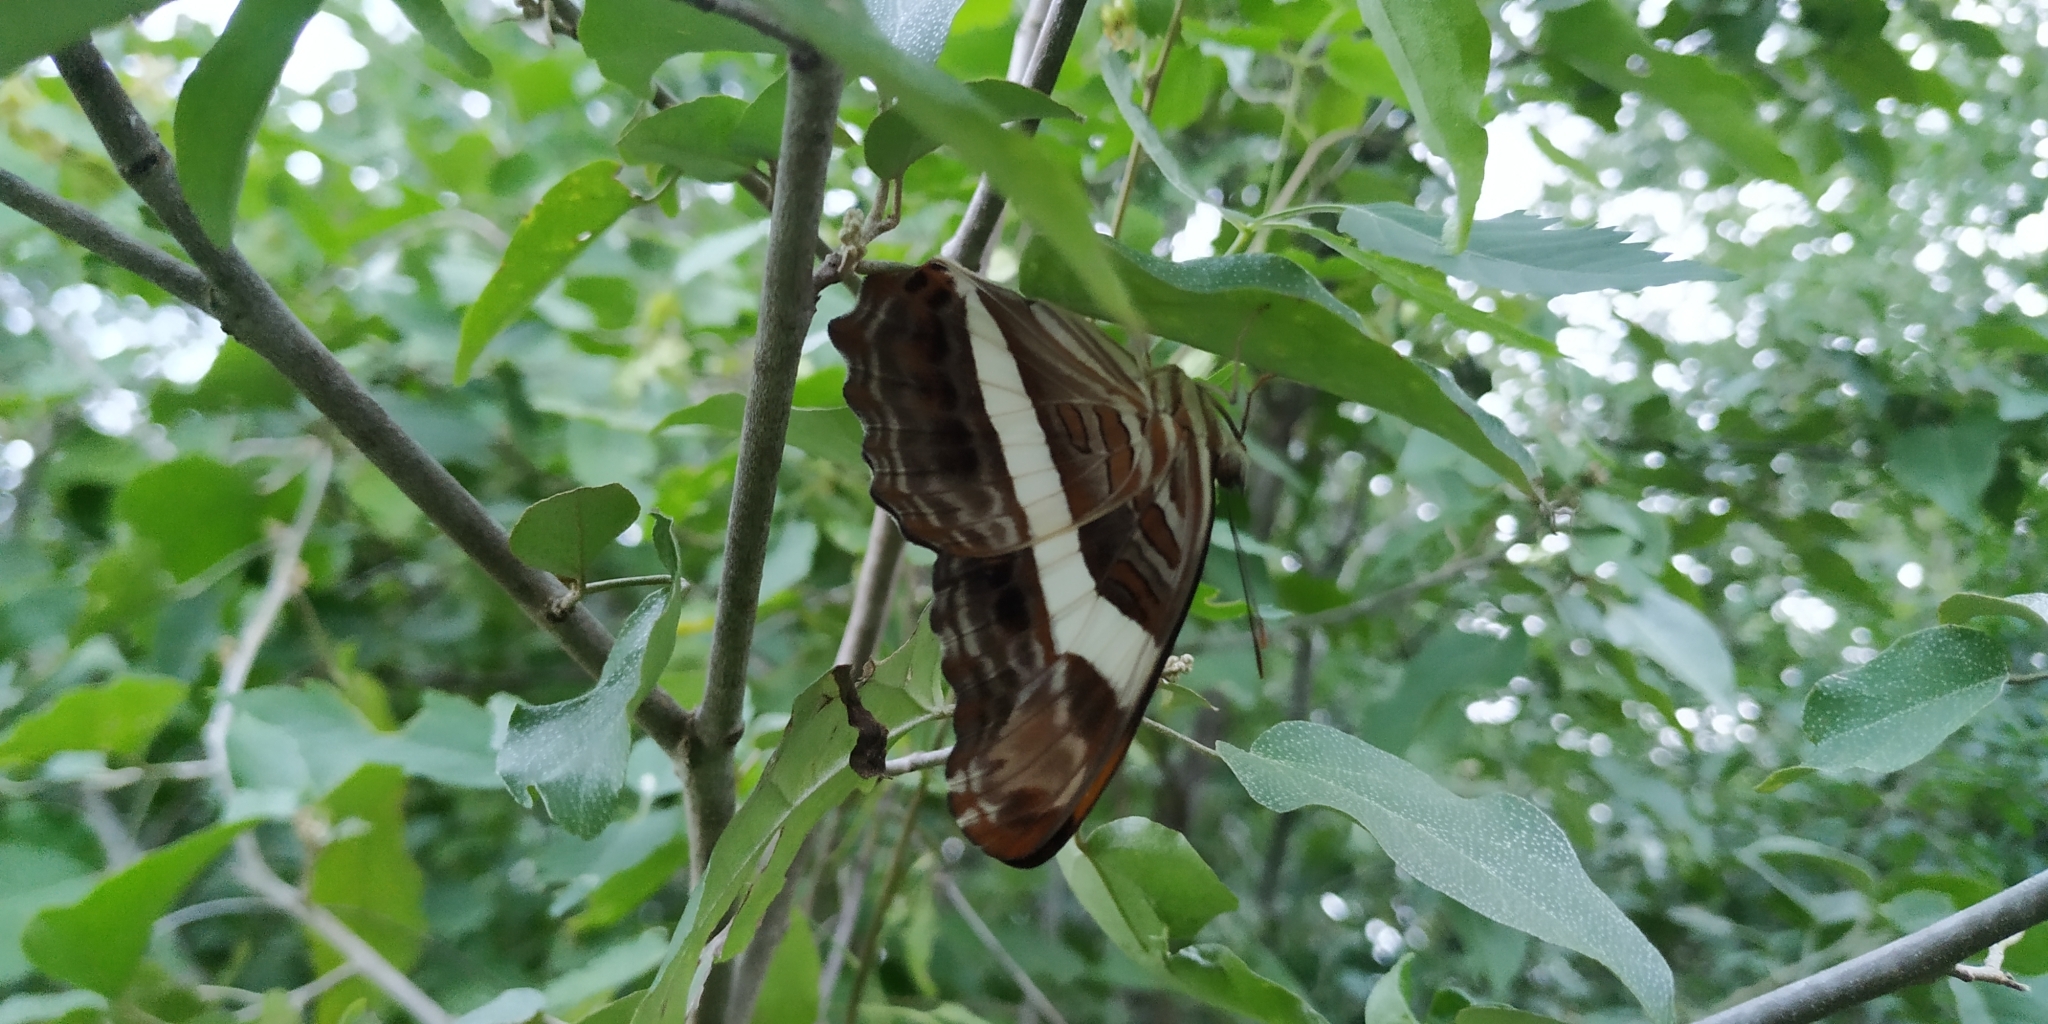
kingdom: Animalia
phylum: Arthropoda
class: Insecta
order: Lepidoptera
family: Nymphalidae
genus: Limenitis
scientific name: Limenitis fessonia
